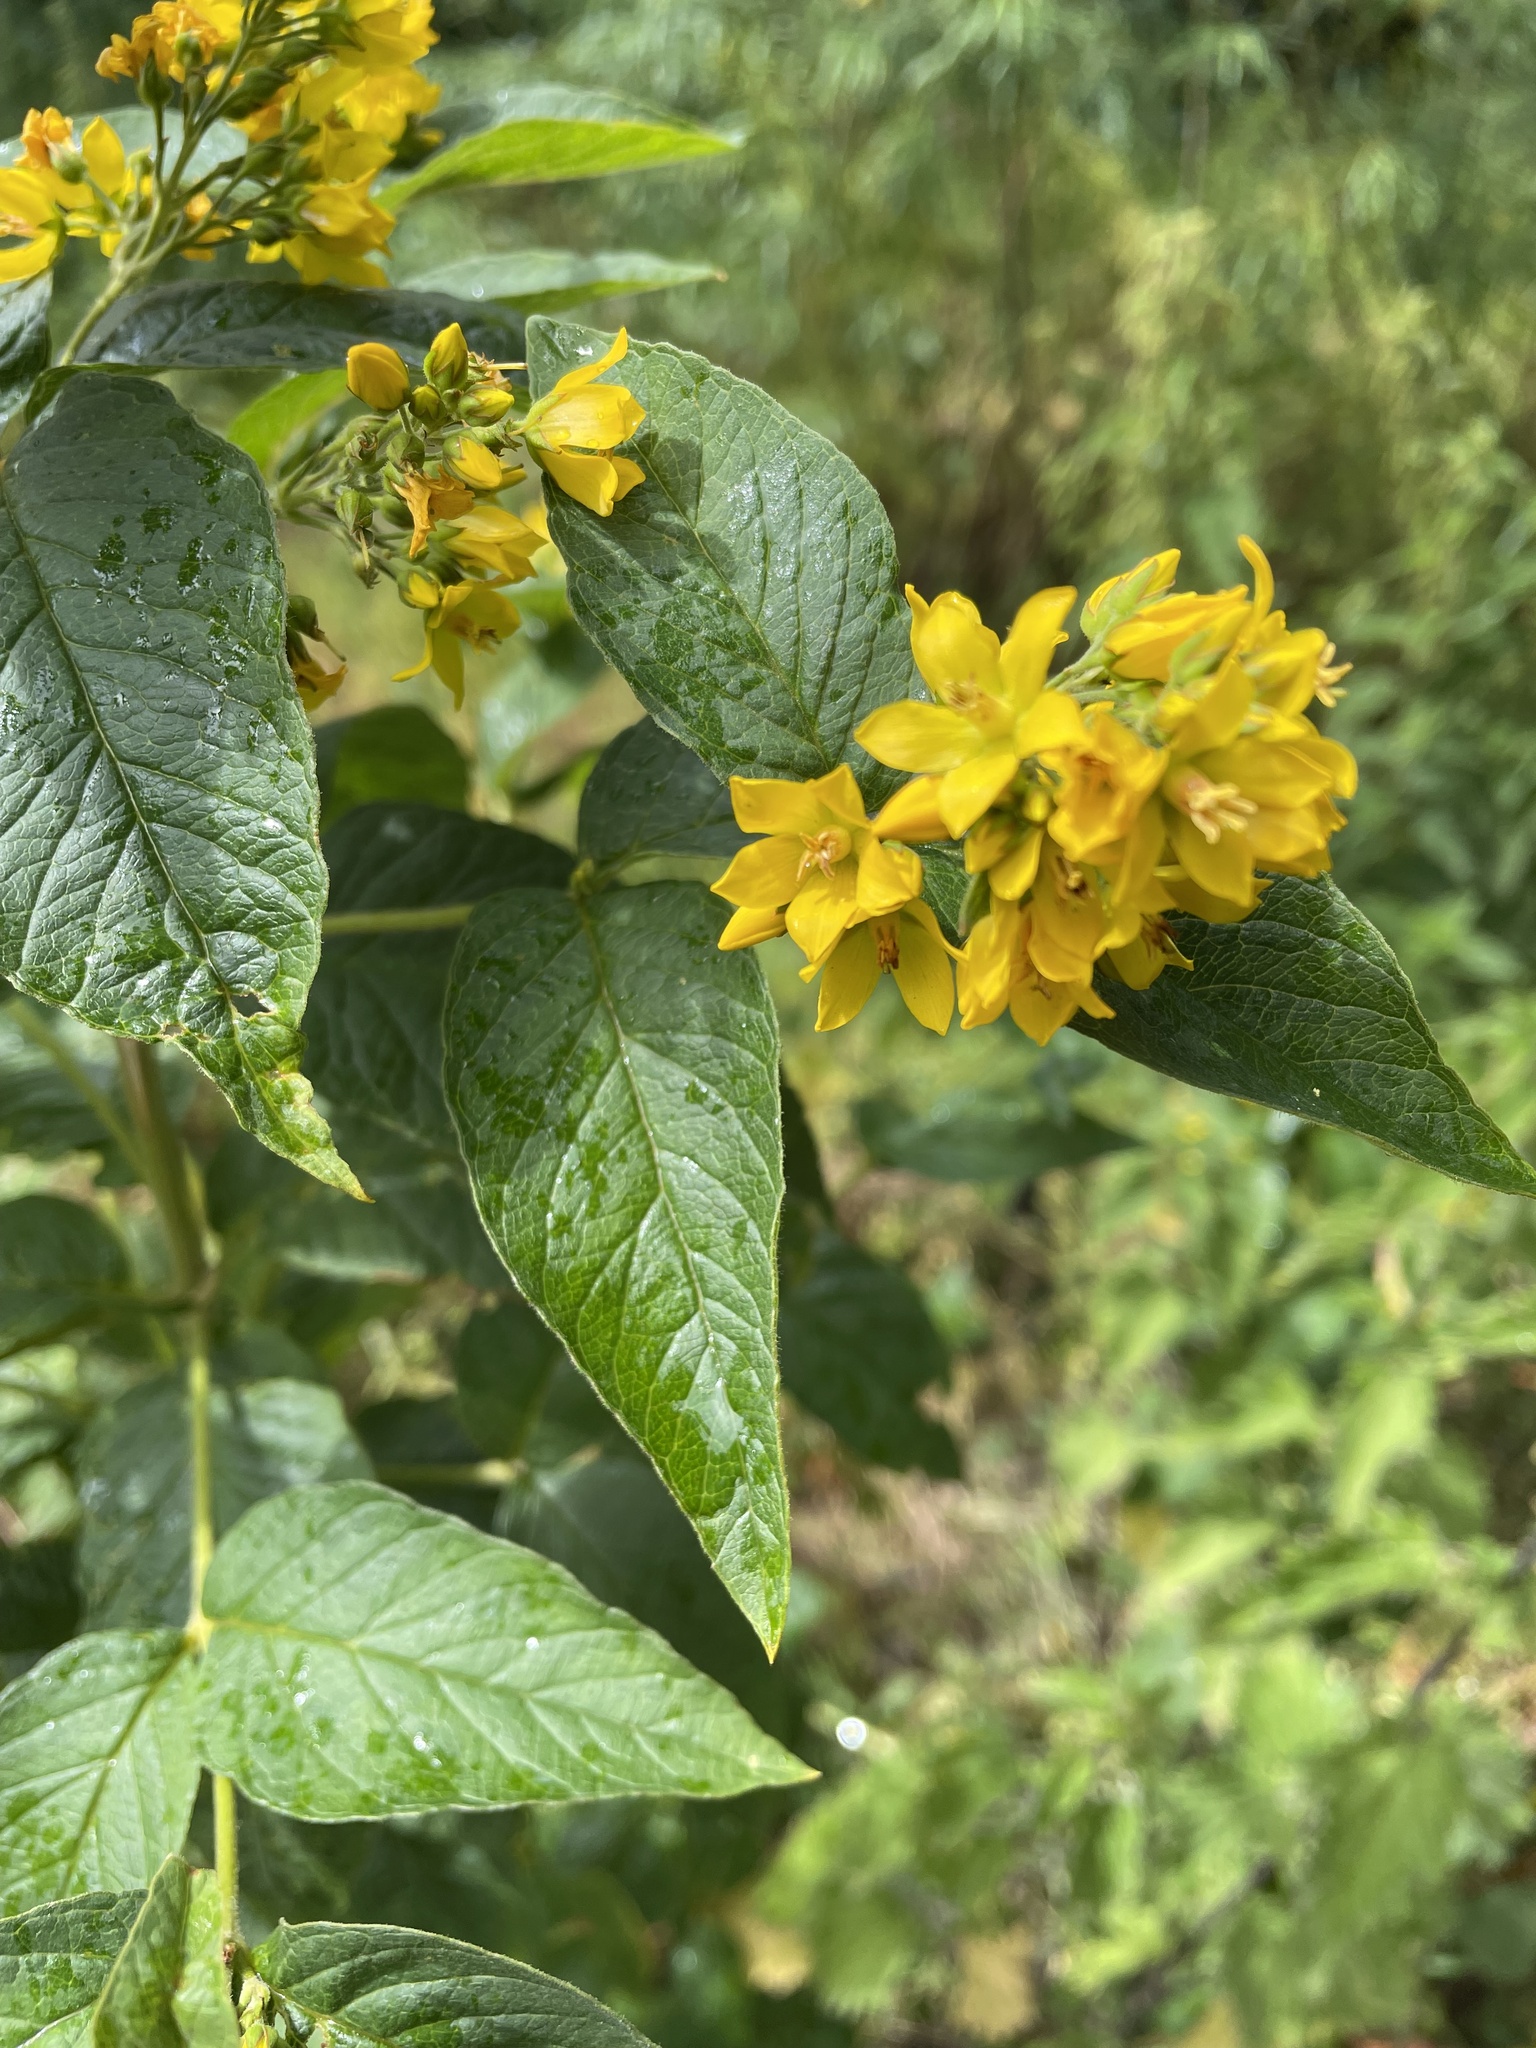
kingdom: Plantae
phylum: Tracheophyta
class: Magnoliopsida
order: Ericales
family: Primulaceae
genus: Lysimachia
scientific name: Lysimachia vulgaris
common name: Yellow loosestrife
